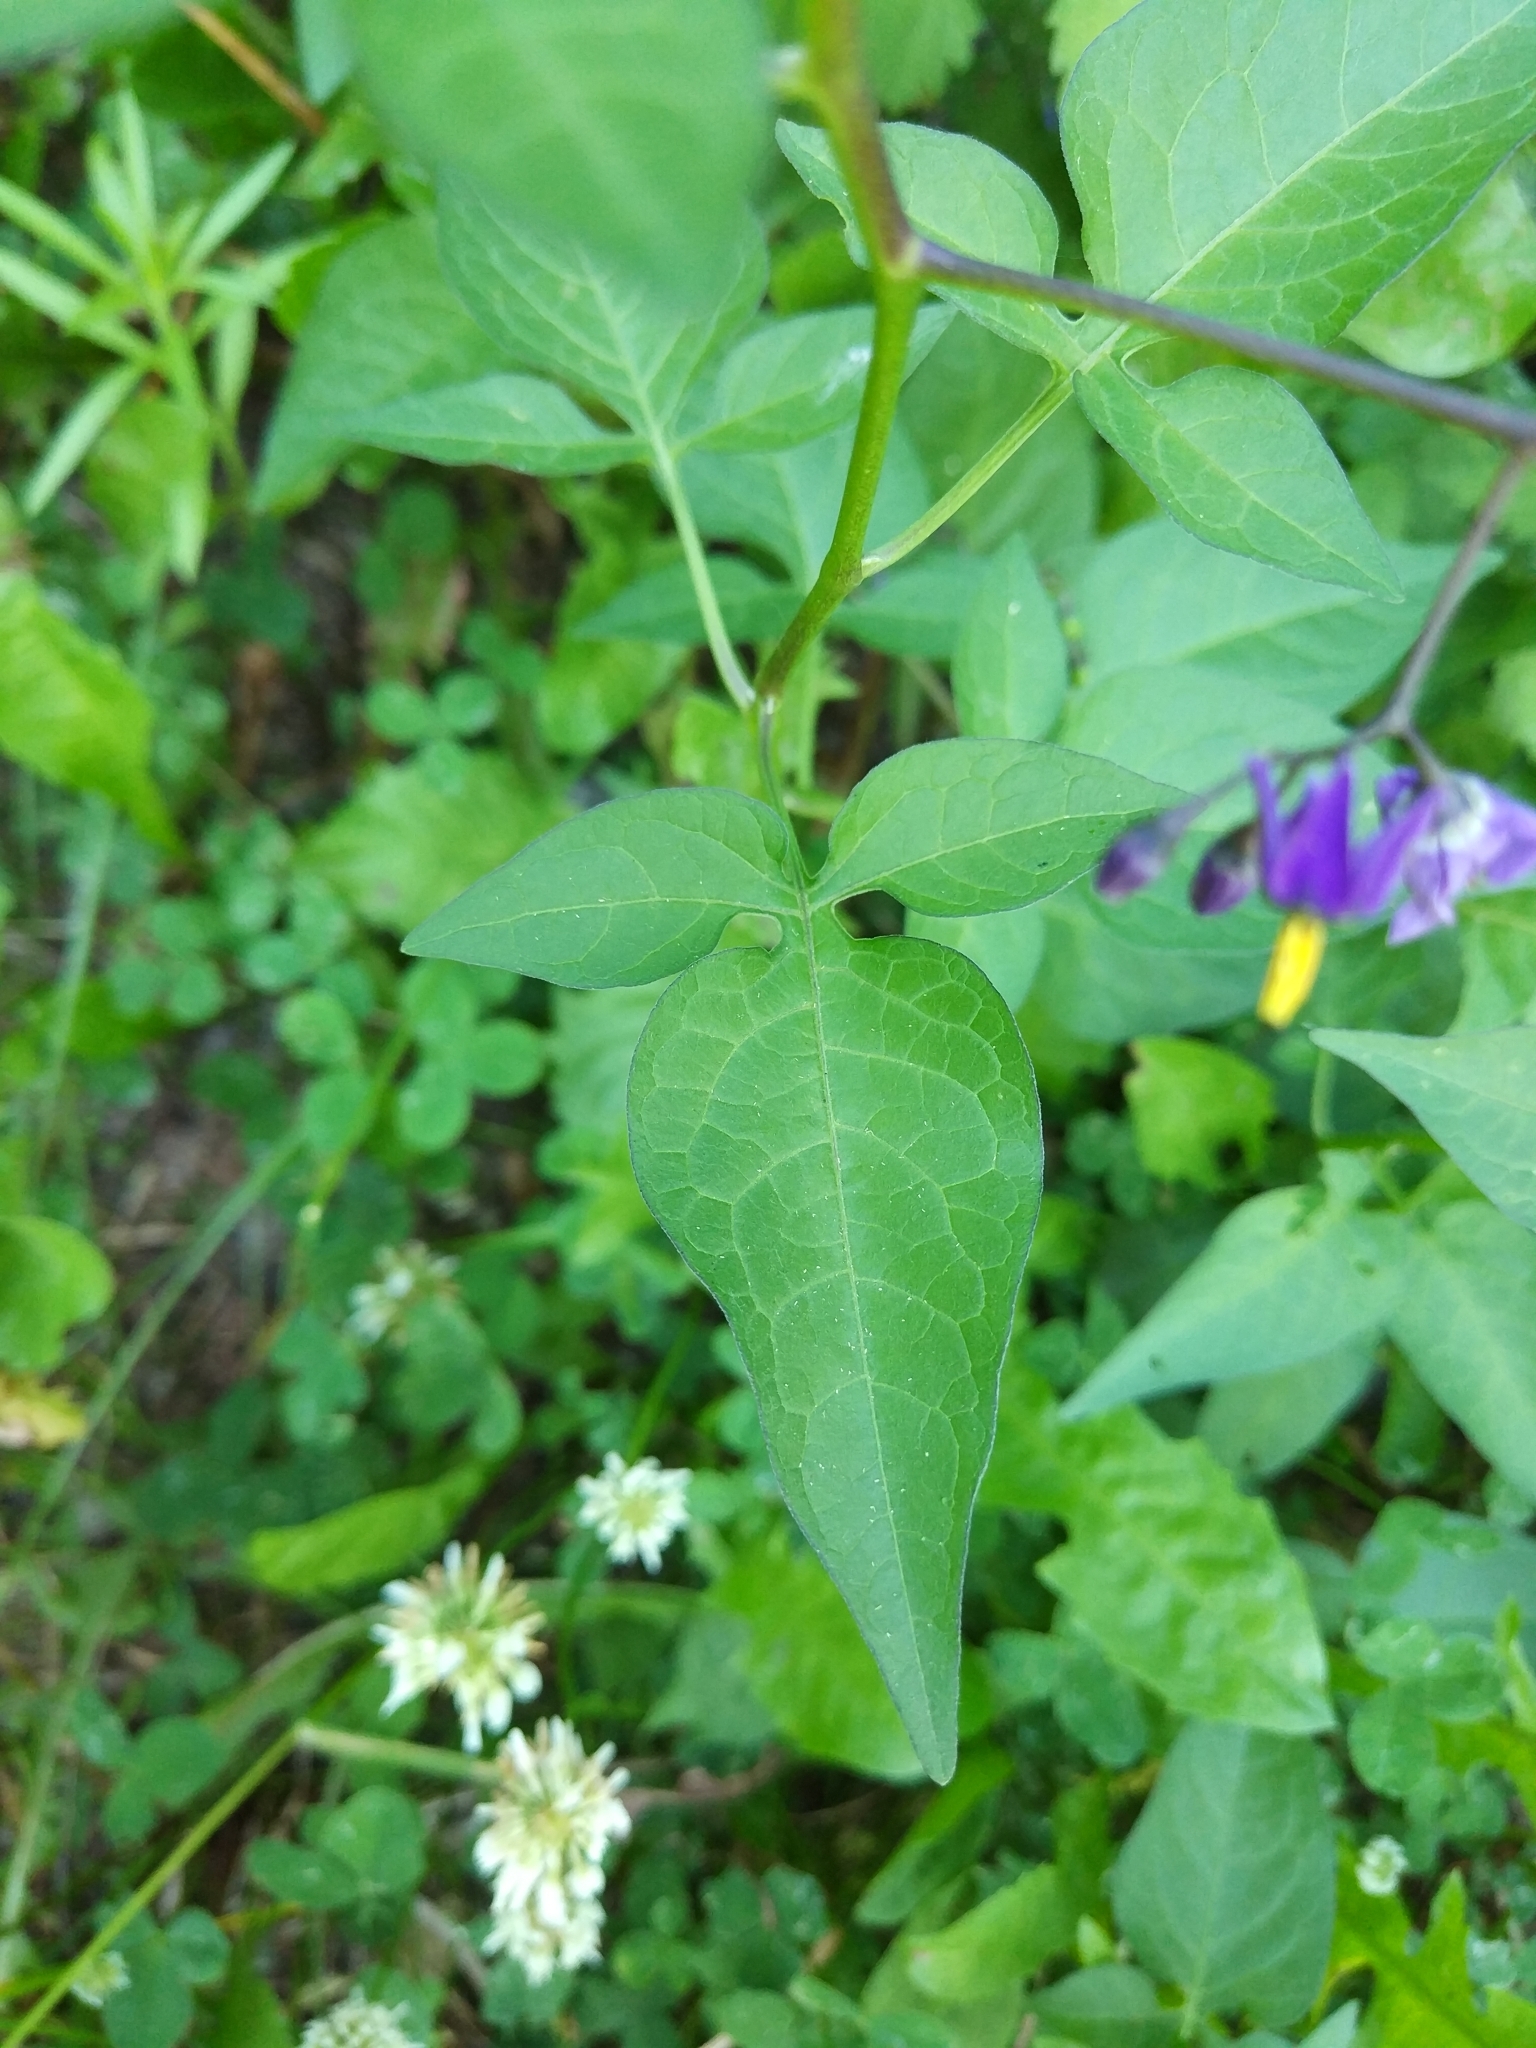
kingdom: Plantae
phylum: Tracheophyta
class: Magnoliopsida
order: Solanales
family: Solanaceae
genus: Solanum
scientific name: Solanum dulcamara
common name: Climbing nightshade
